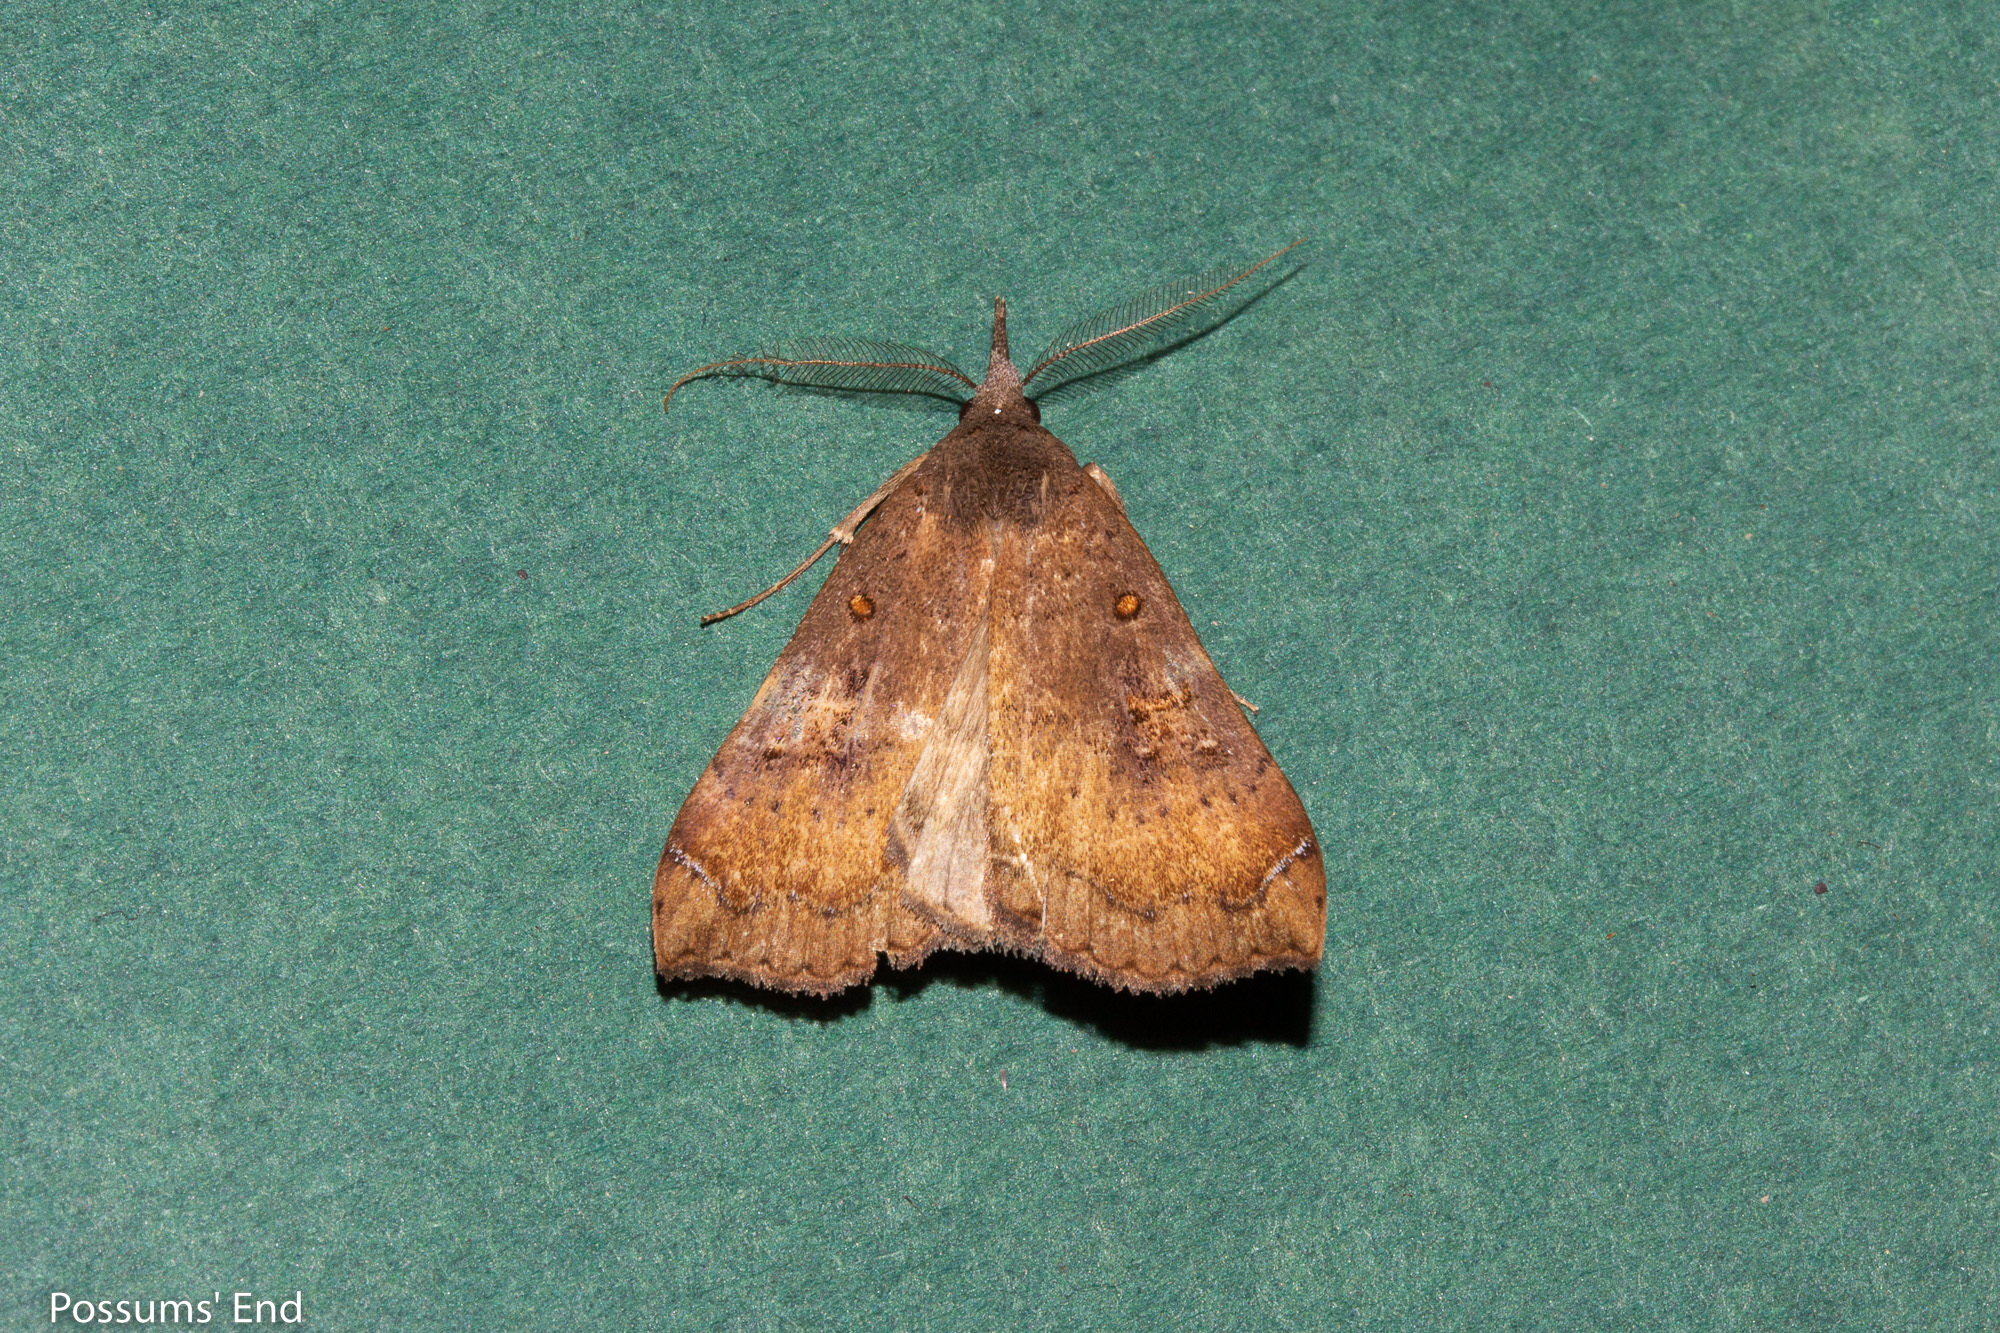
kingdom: Animalia
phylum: Arthropoda
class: Insecta
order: Lepidoptera
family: Erebidae
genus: Rhapsa
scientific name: Rhapsa scotosialis
